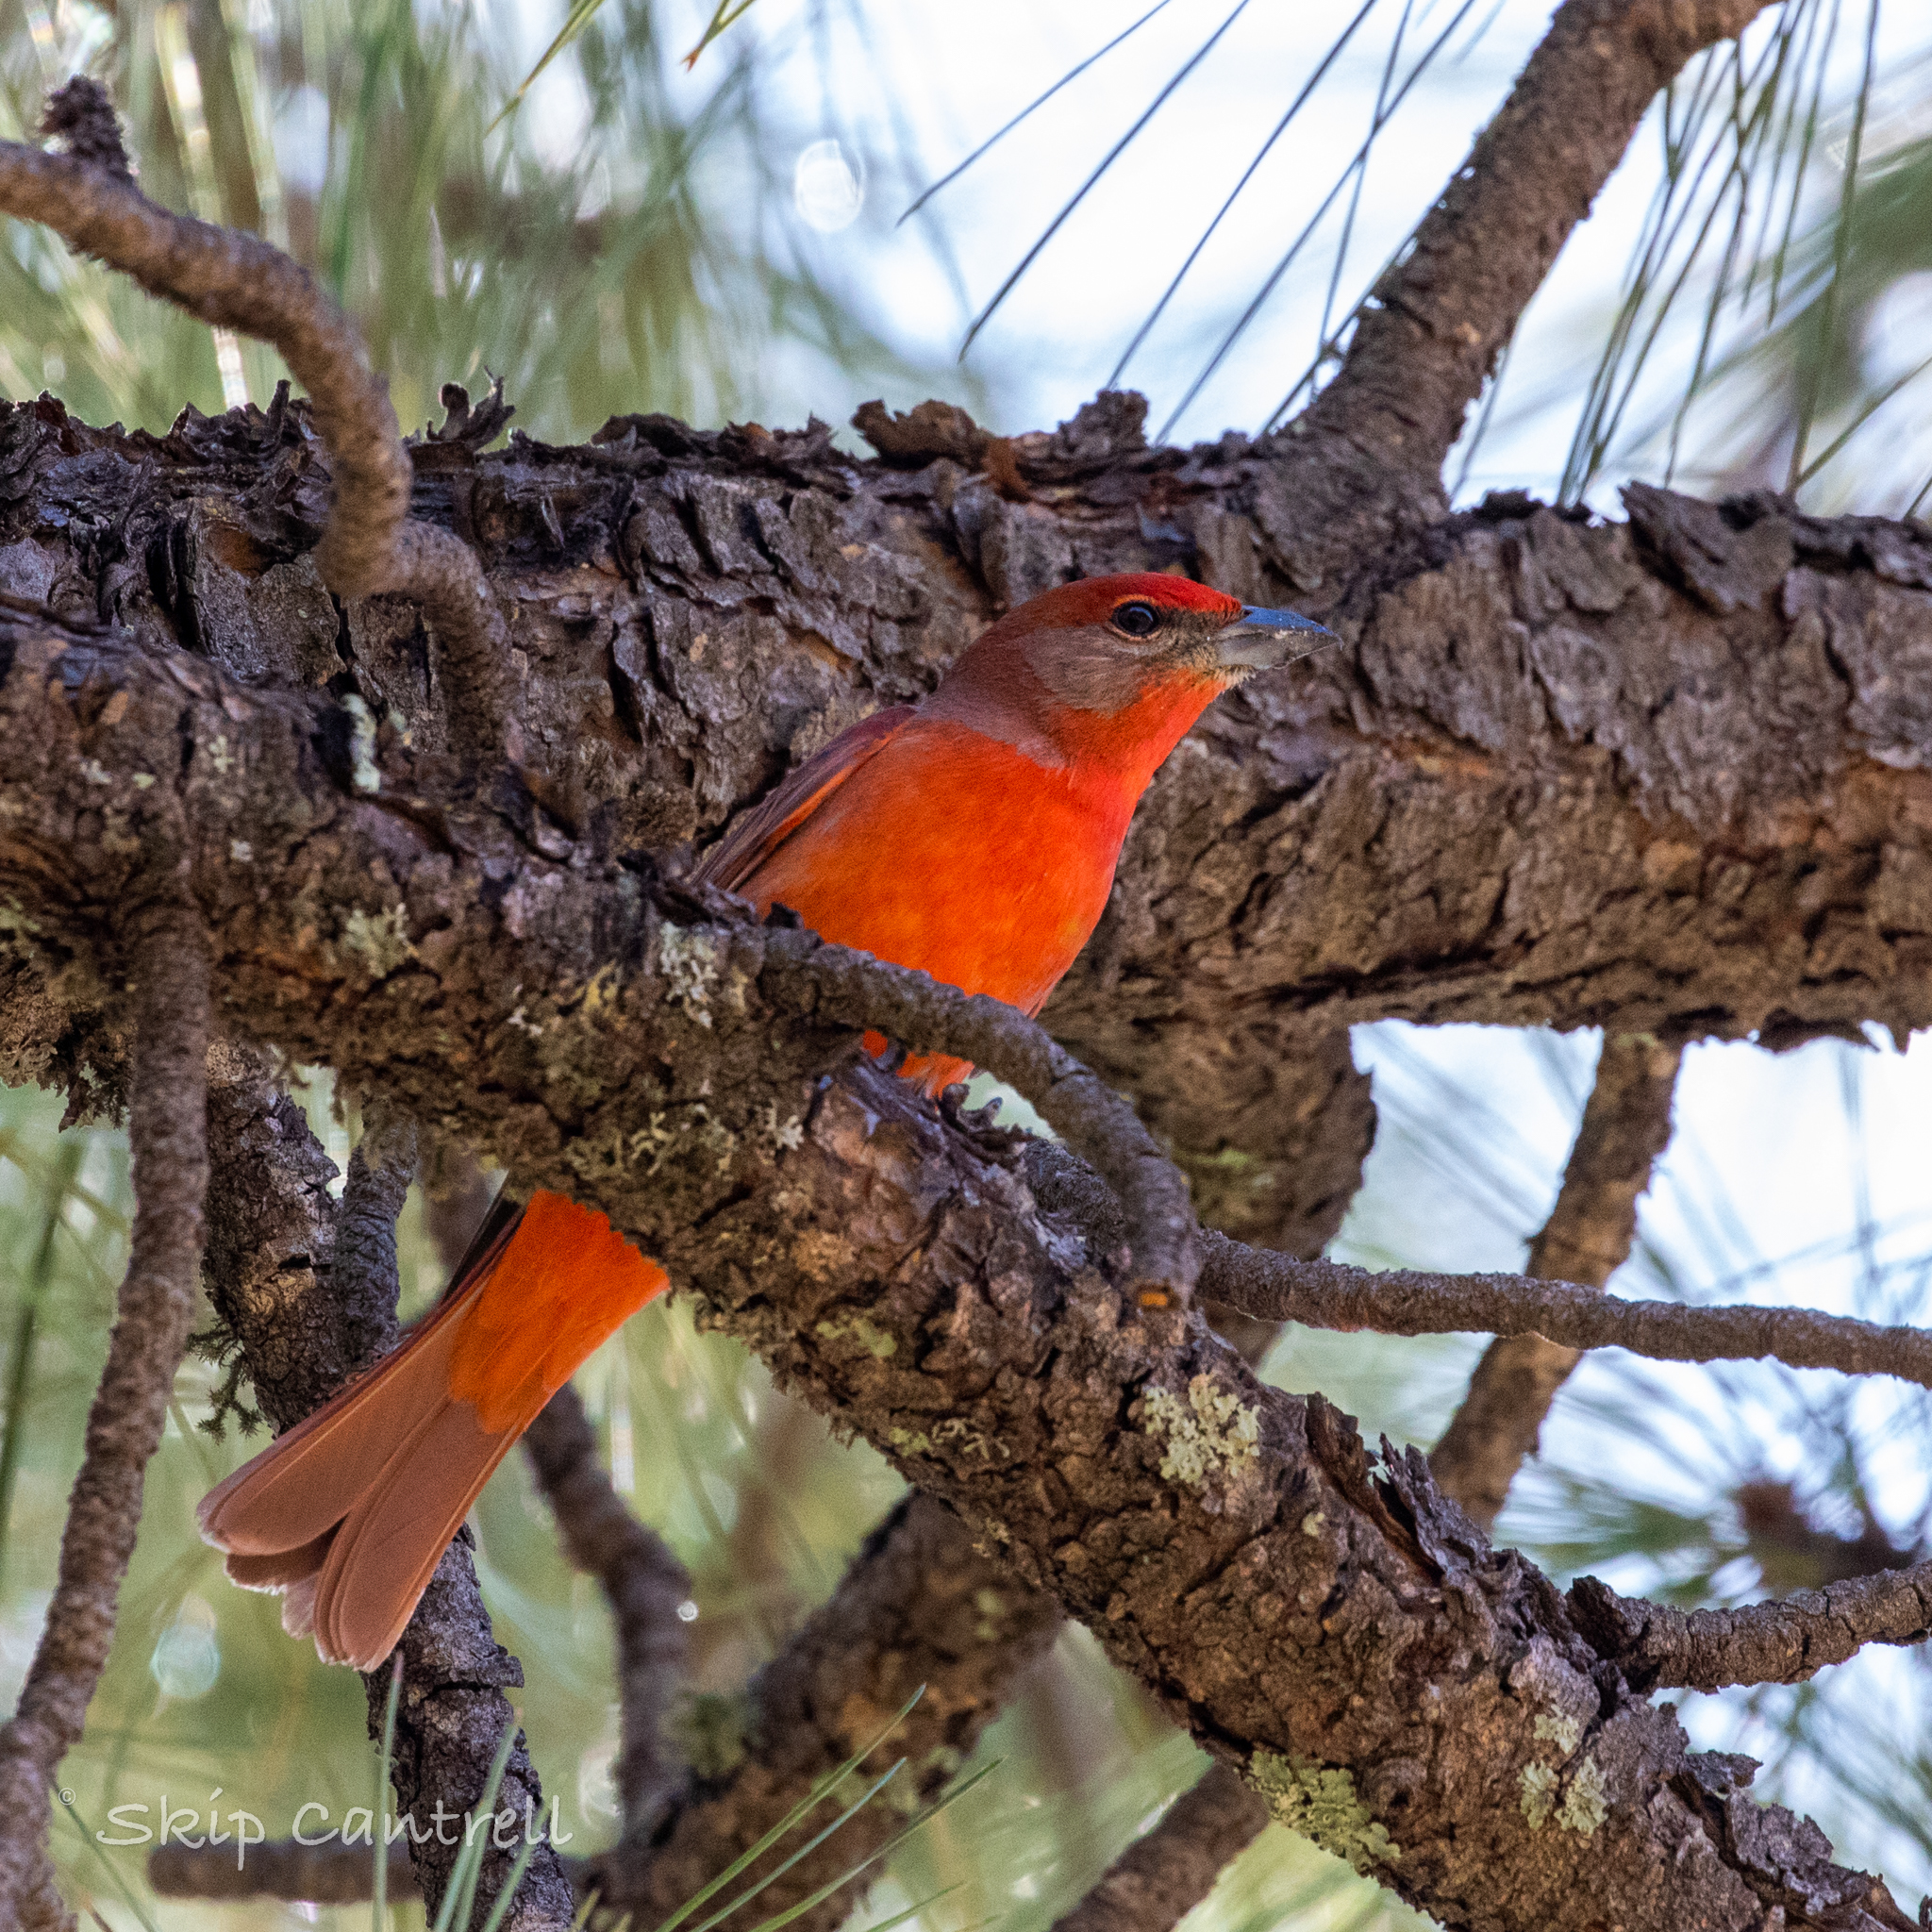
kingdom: Animalia
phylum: Chordata
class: Aves
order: Passeriformes
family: Cardinalidae
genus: Piranga
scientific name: Piranga flava
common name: Red tanager
